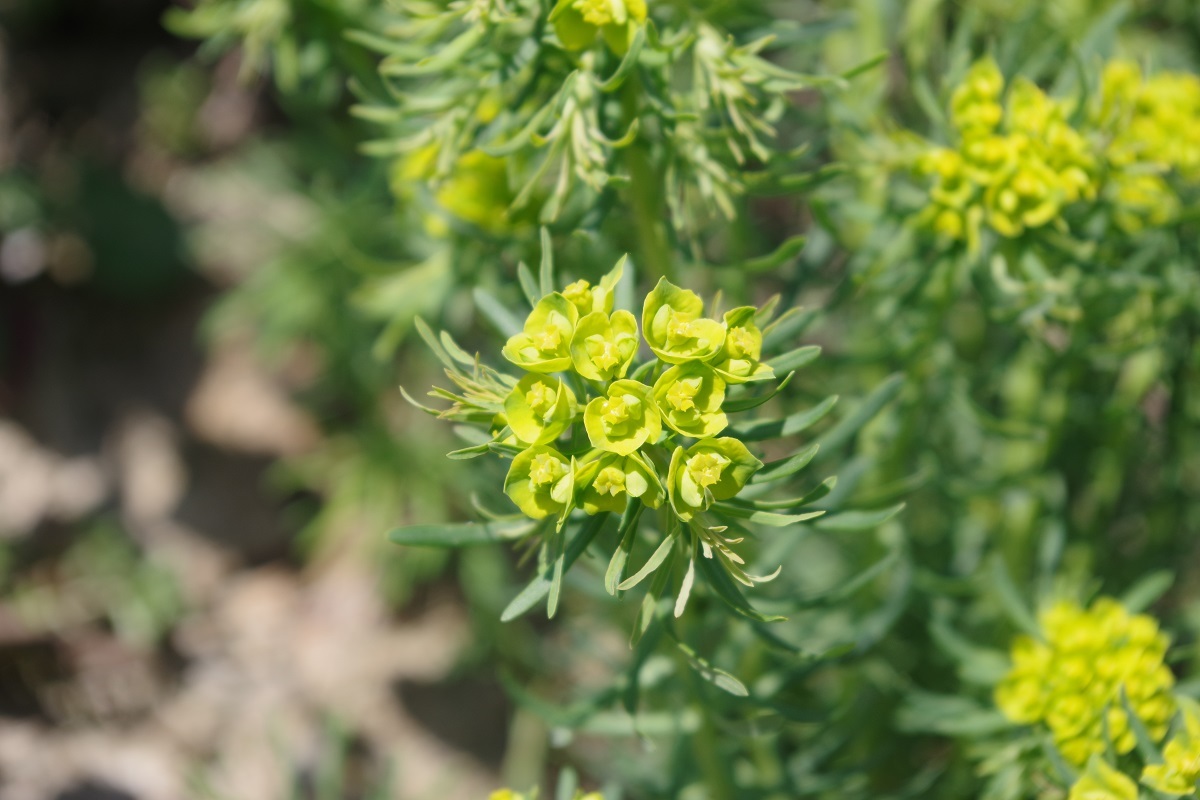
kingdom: Plantae
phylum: Tracheophyta
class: Magnoliopsida
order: Malpighiales
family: Euphorbiaceae
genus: Euphorbia
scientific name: Euphorbia cyparissias
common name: Cypress spurge
